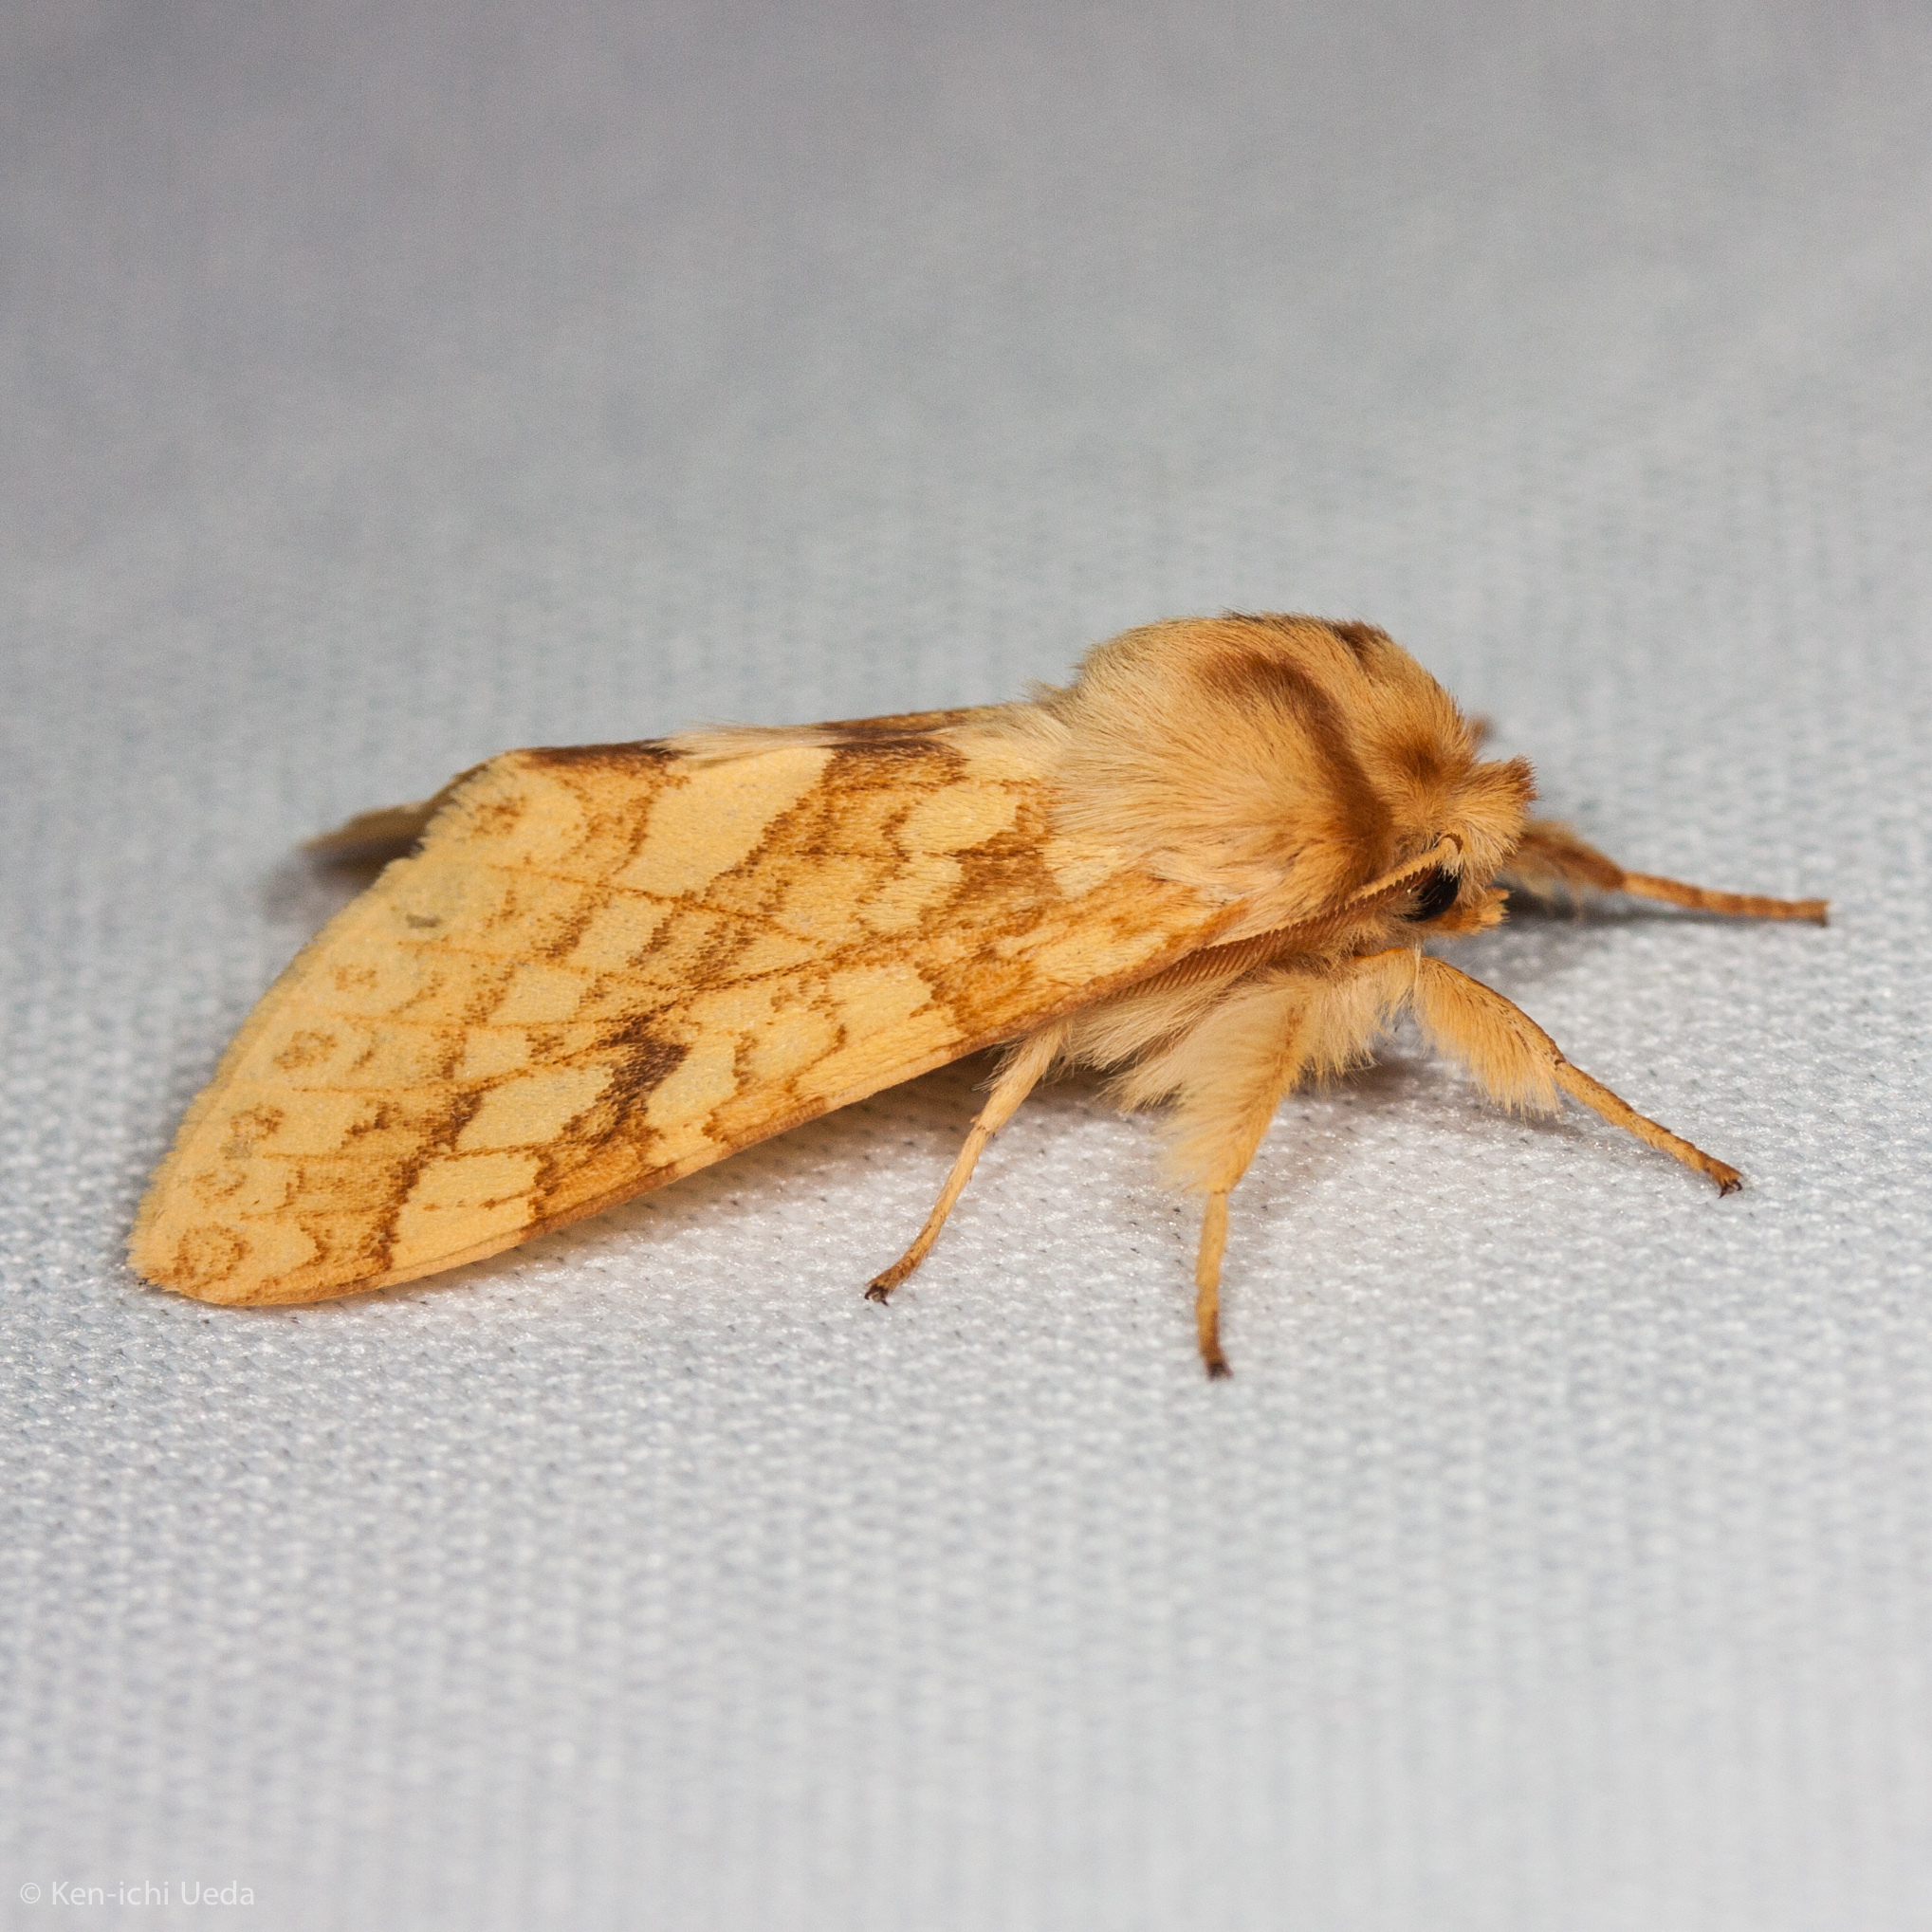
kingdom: Animalia
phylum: Arthropoda
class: Insecta
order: Lepidoptera
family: Erebidae
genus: Lophocampa
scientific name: Lophocampa maculata
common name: Spotted tussock moth
